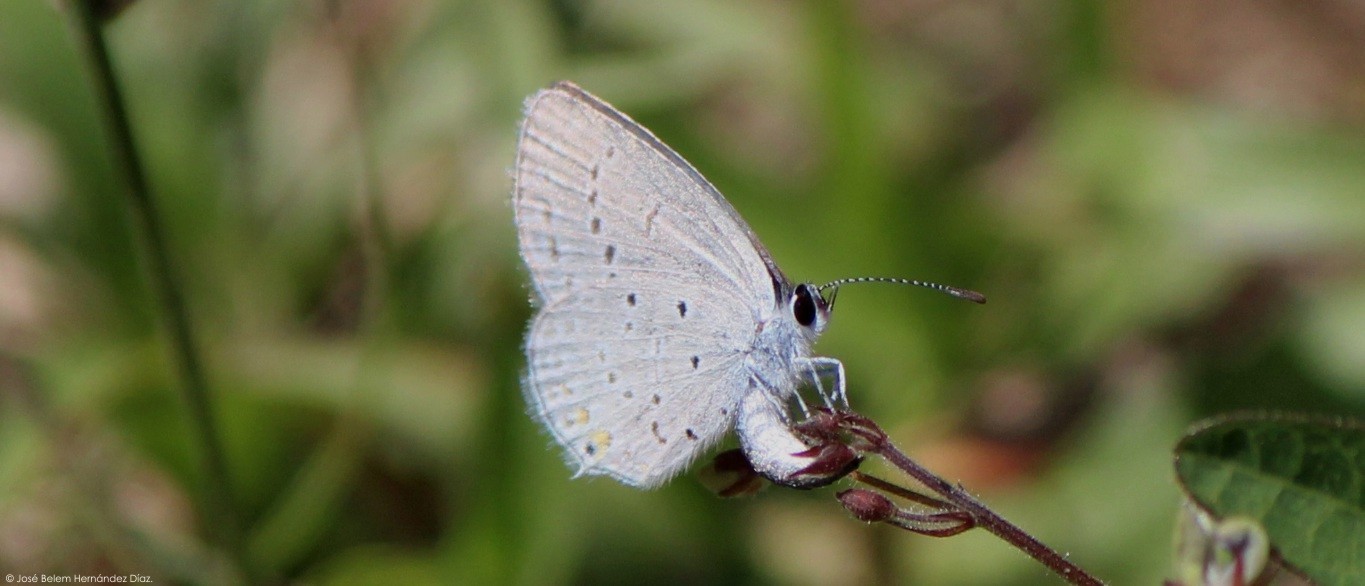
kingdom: Animalia
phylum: Arthropoda
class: Insecta
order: Lepidoptera
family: Lycaenidae
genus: Elkalyce
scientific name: Elkalyce comyntas
